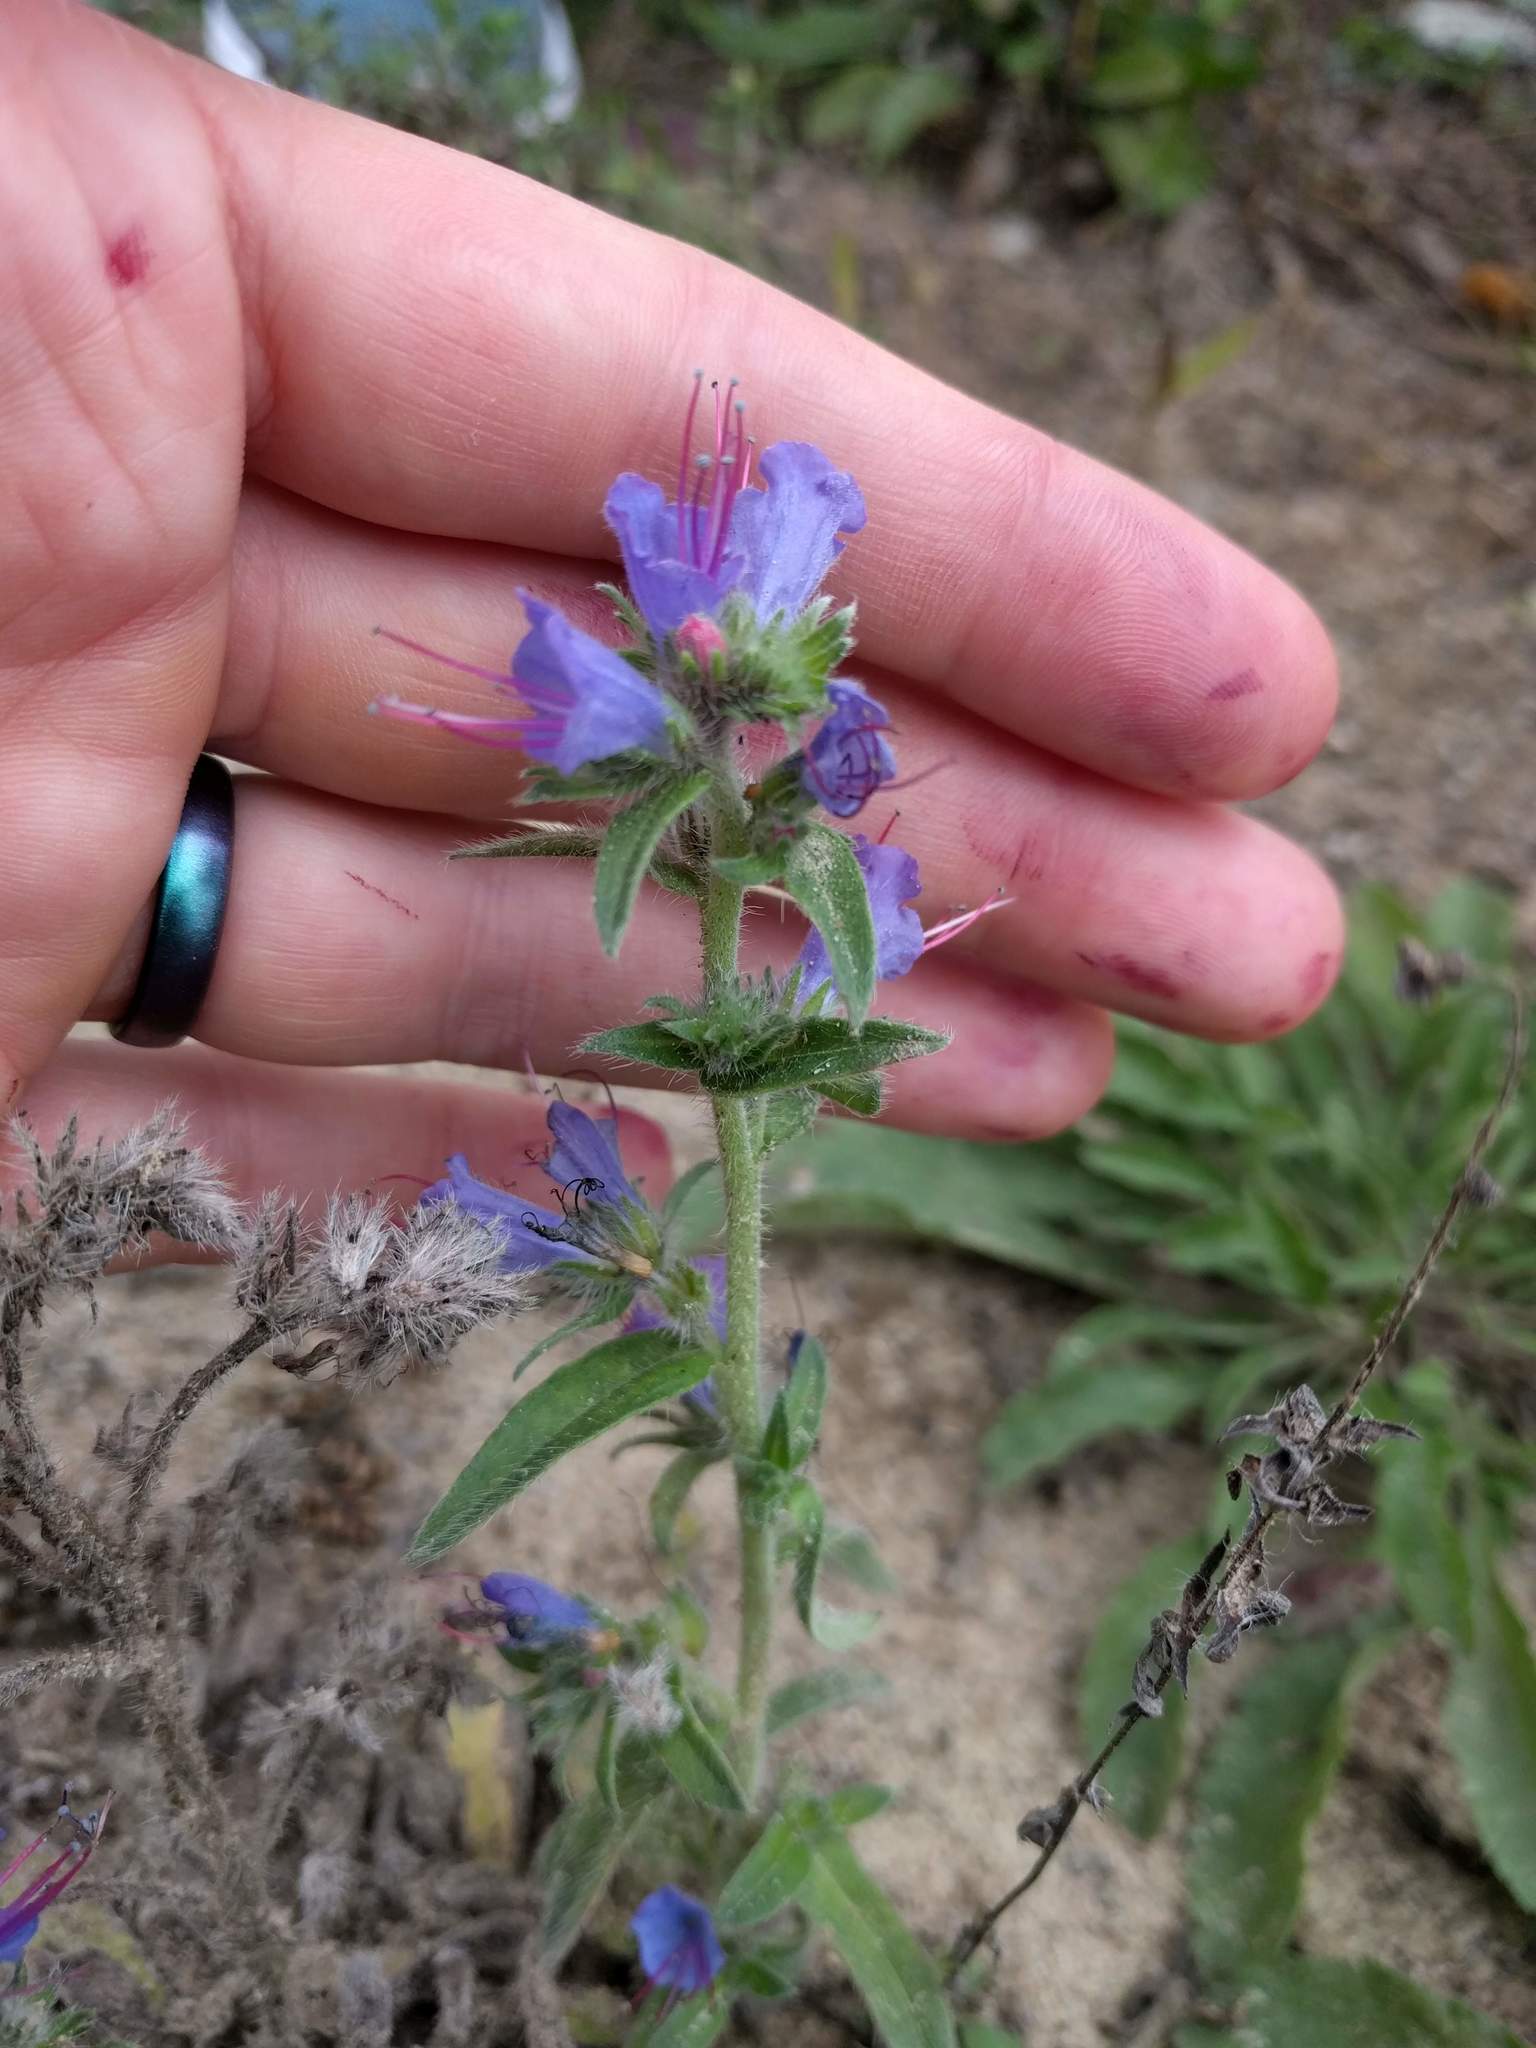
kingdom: Plantae
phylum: Tracheophyta
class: Magnoliopsida
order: Boraginales
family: Boraginaceae
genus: Echium
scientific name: Echium vulgare
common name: Common viper's bugloss
